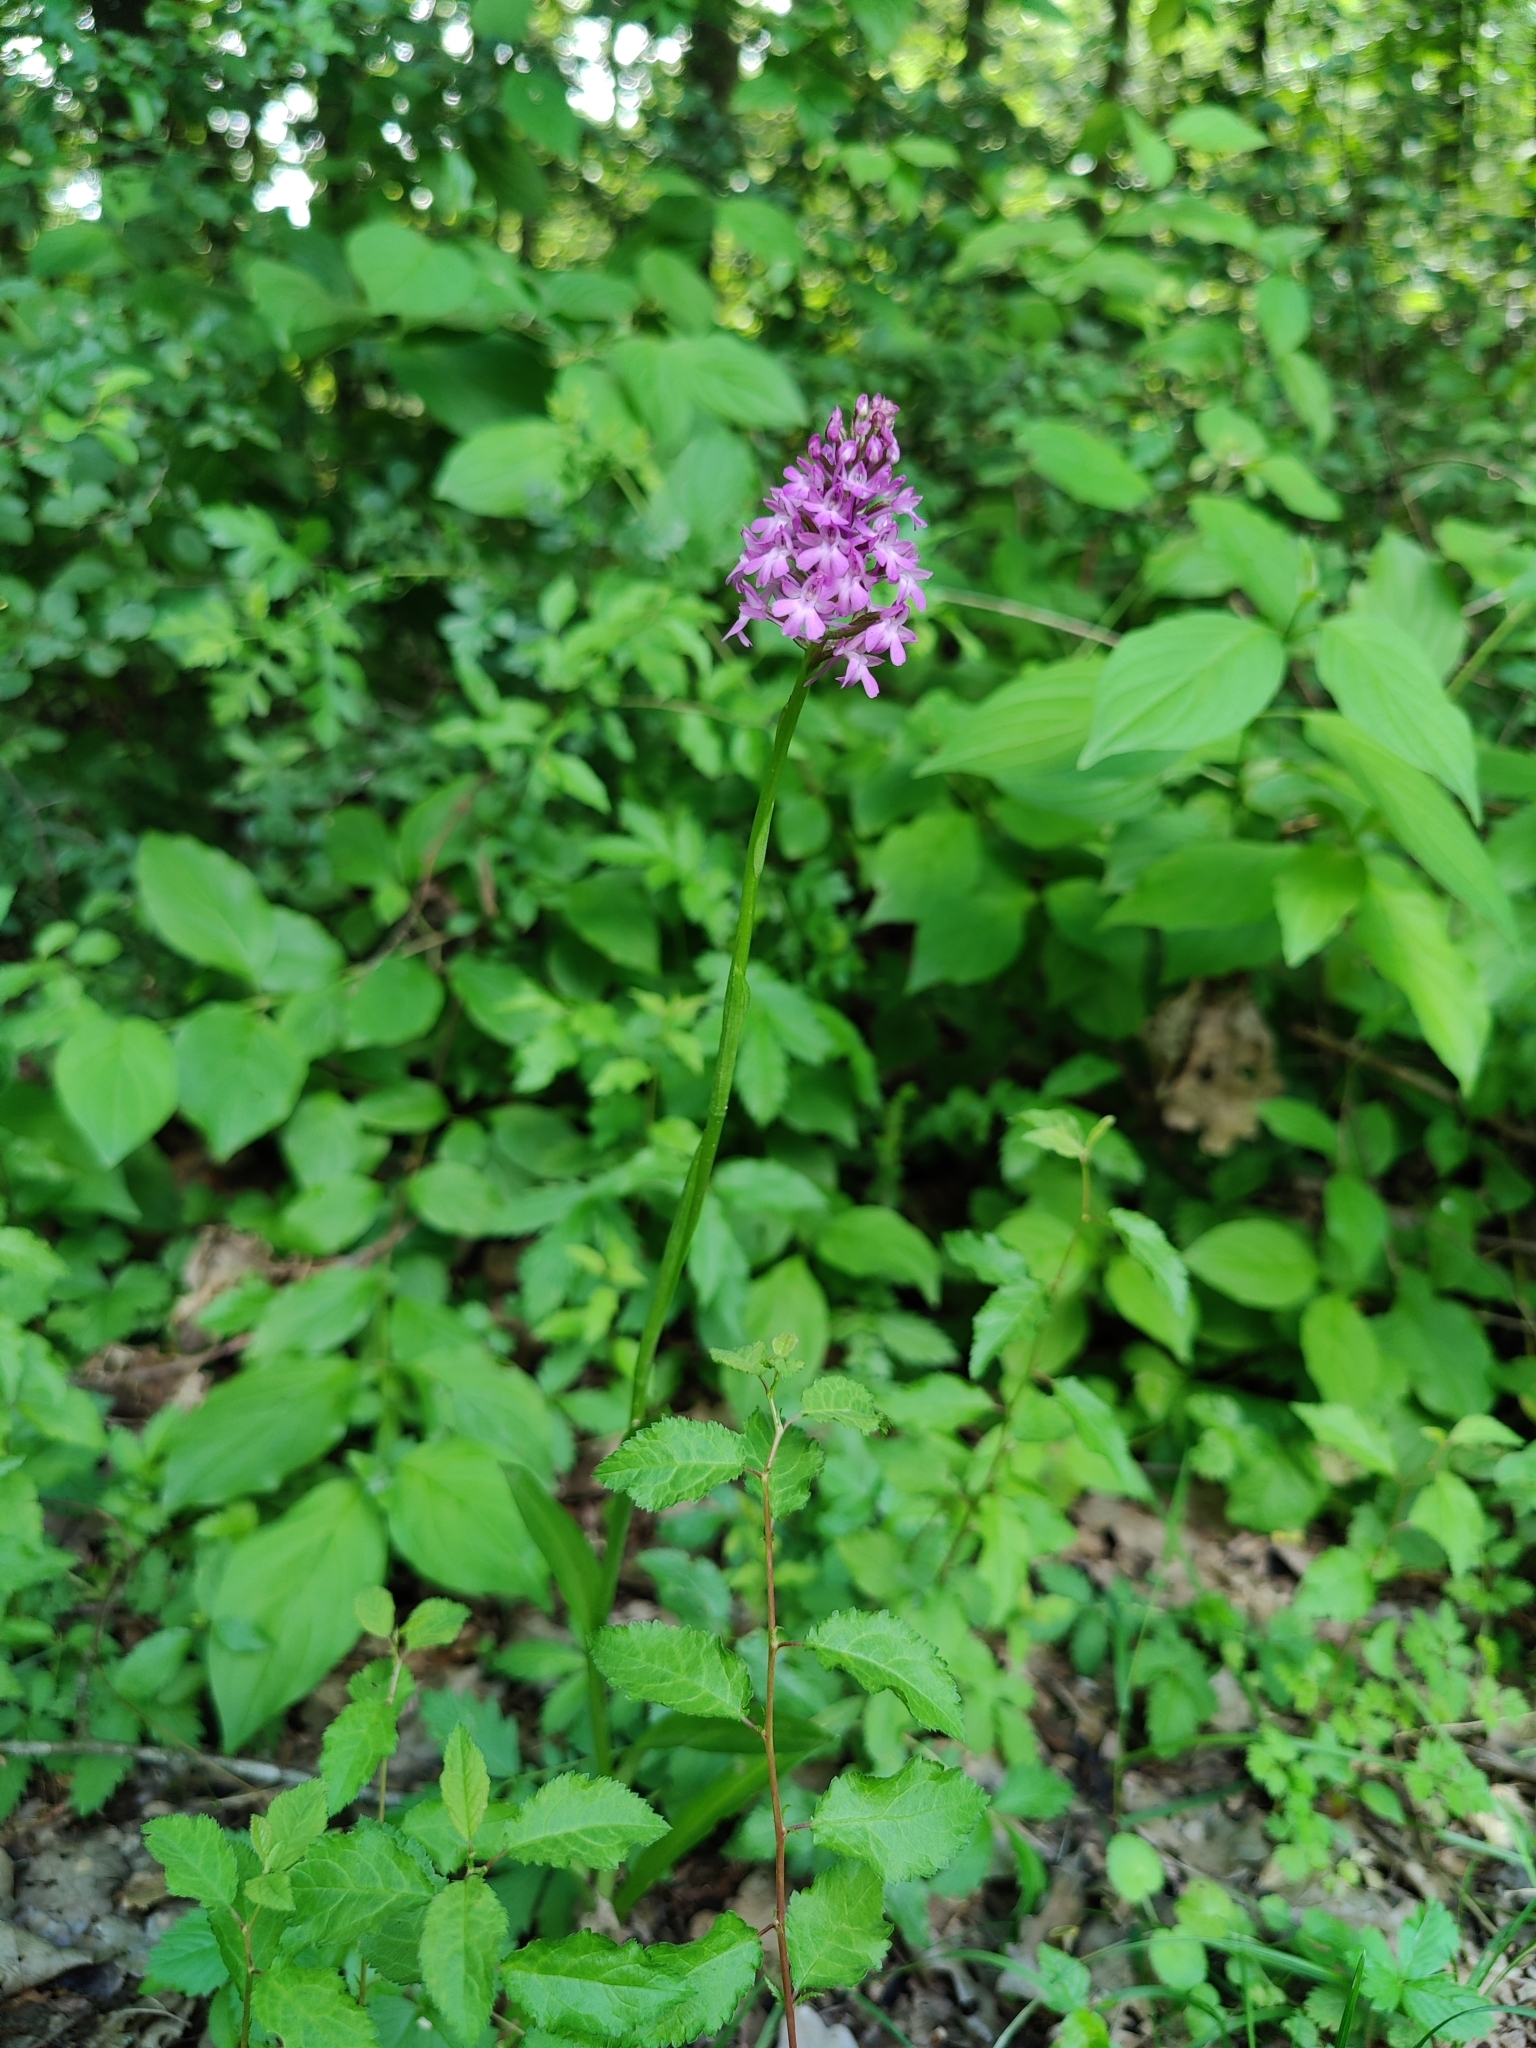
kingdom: Plantae
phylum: Tracheophyta
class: Liliopsida
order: Asparagales
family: Orchidaceae
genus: Anacamptis
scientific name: Anacamptis pyramidalis
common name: Pyramidal orchid
